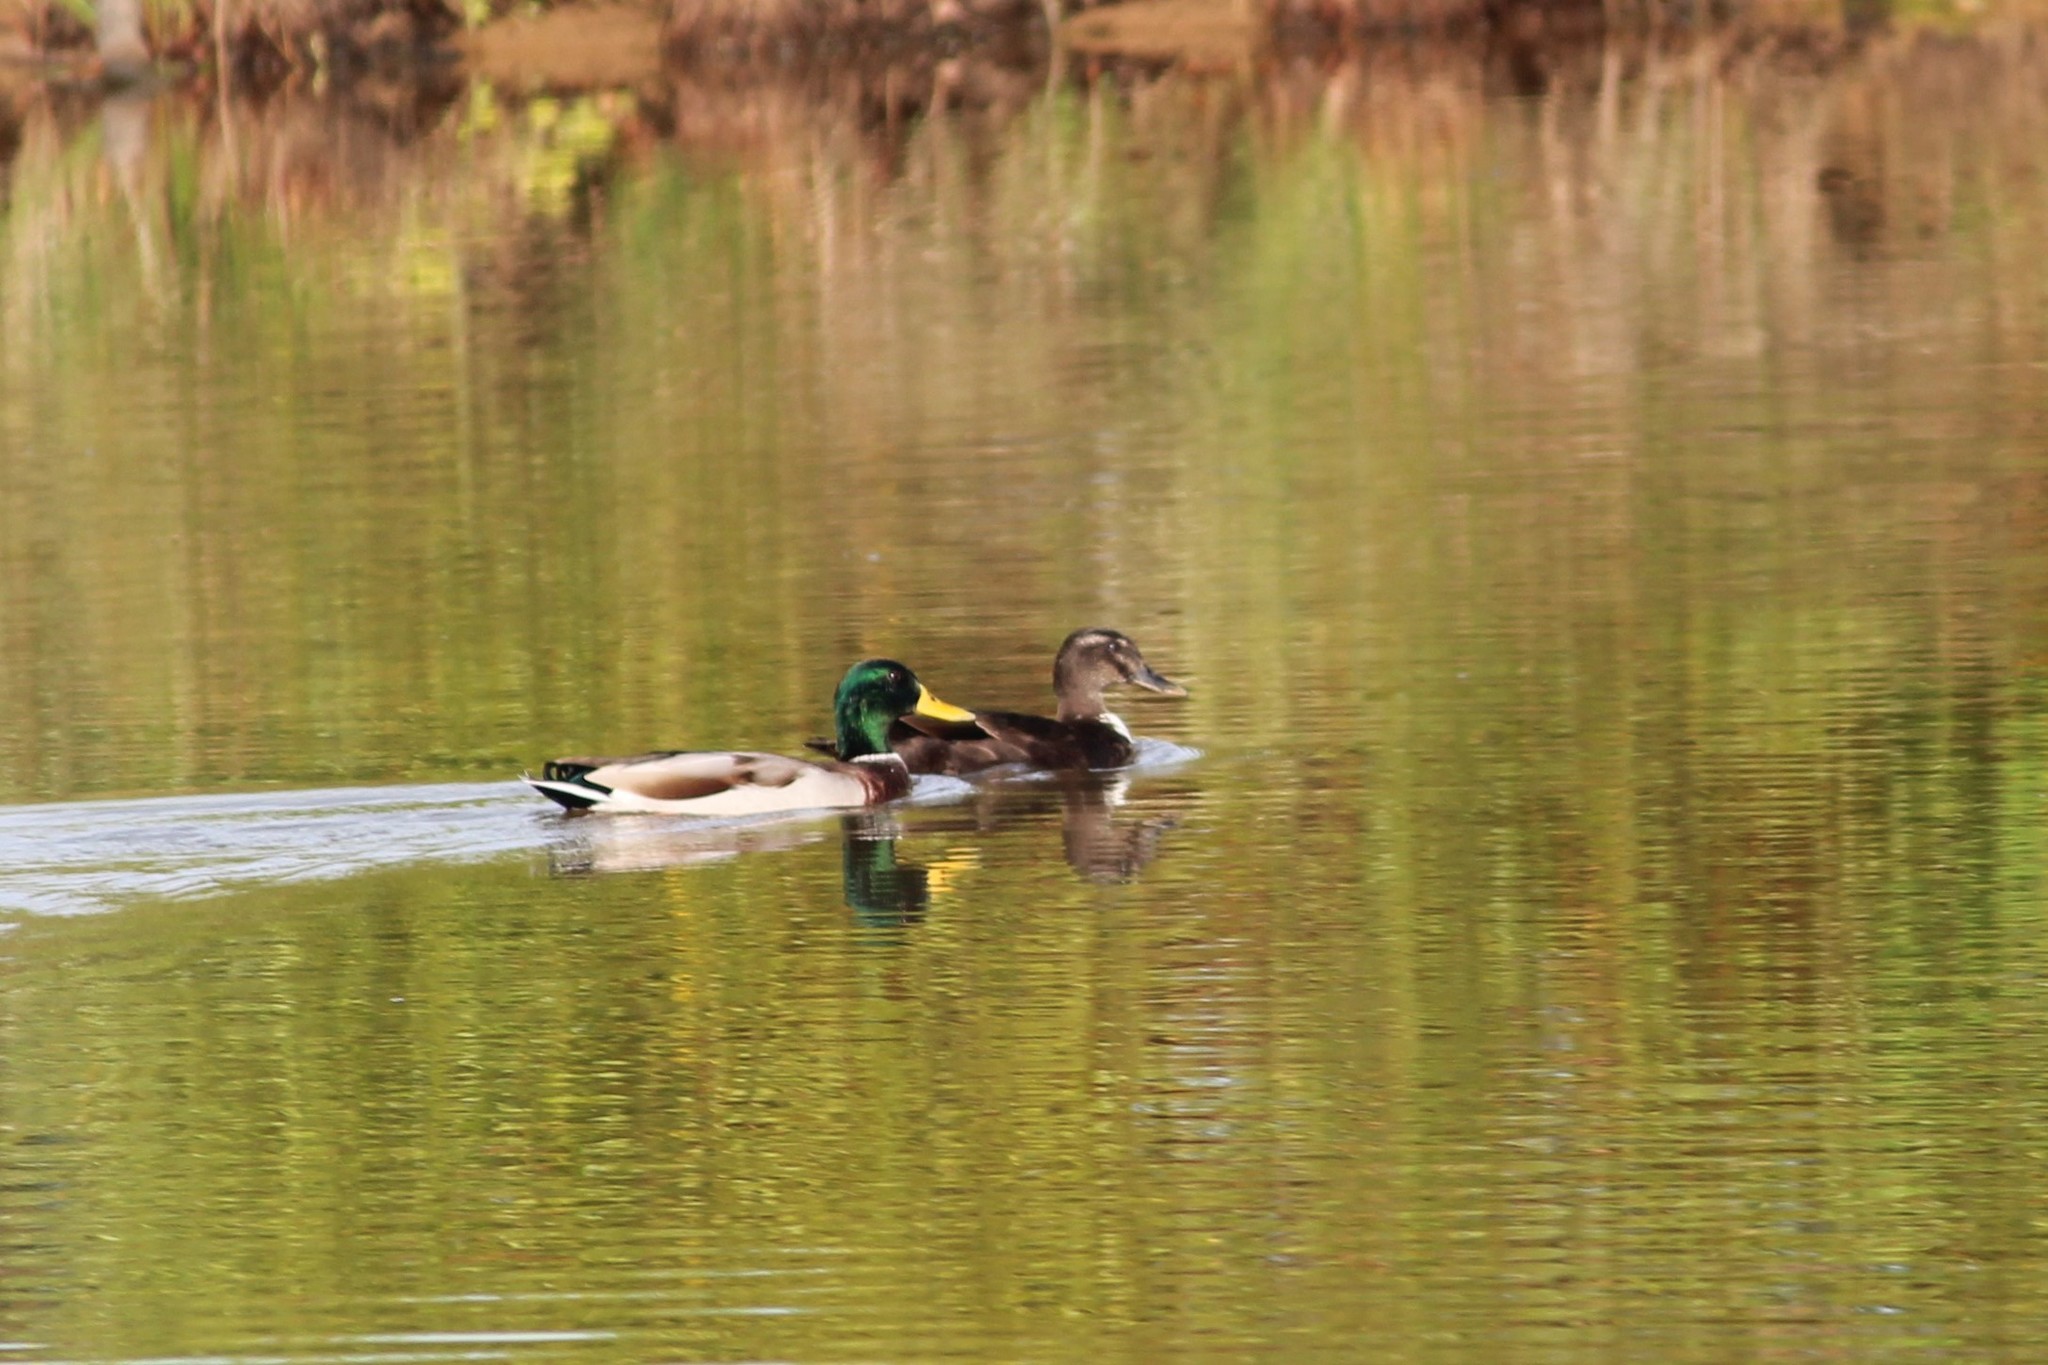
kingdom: Animalia
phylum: Chordata
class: Aves
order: Anseriformes
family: Anatidae
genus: Anas
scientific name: Anas platyrhynchos
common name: Mallard
